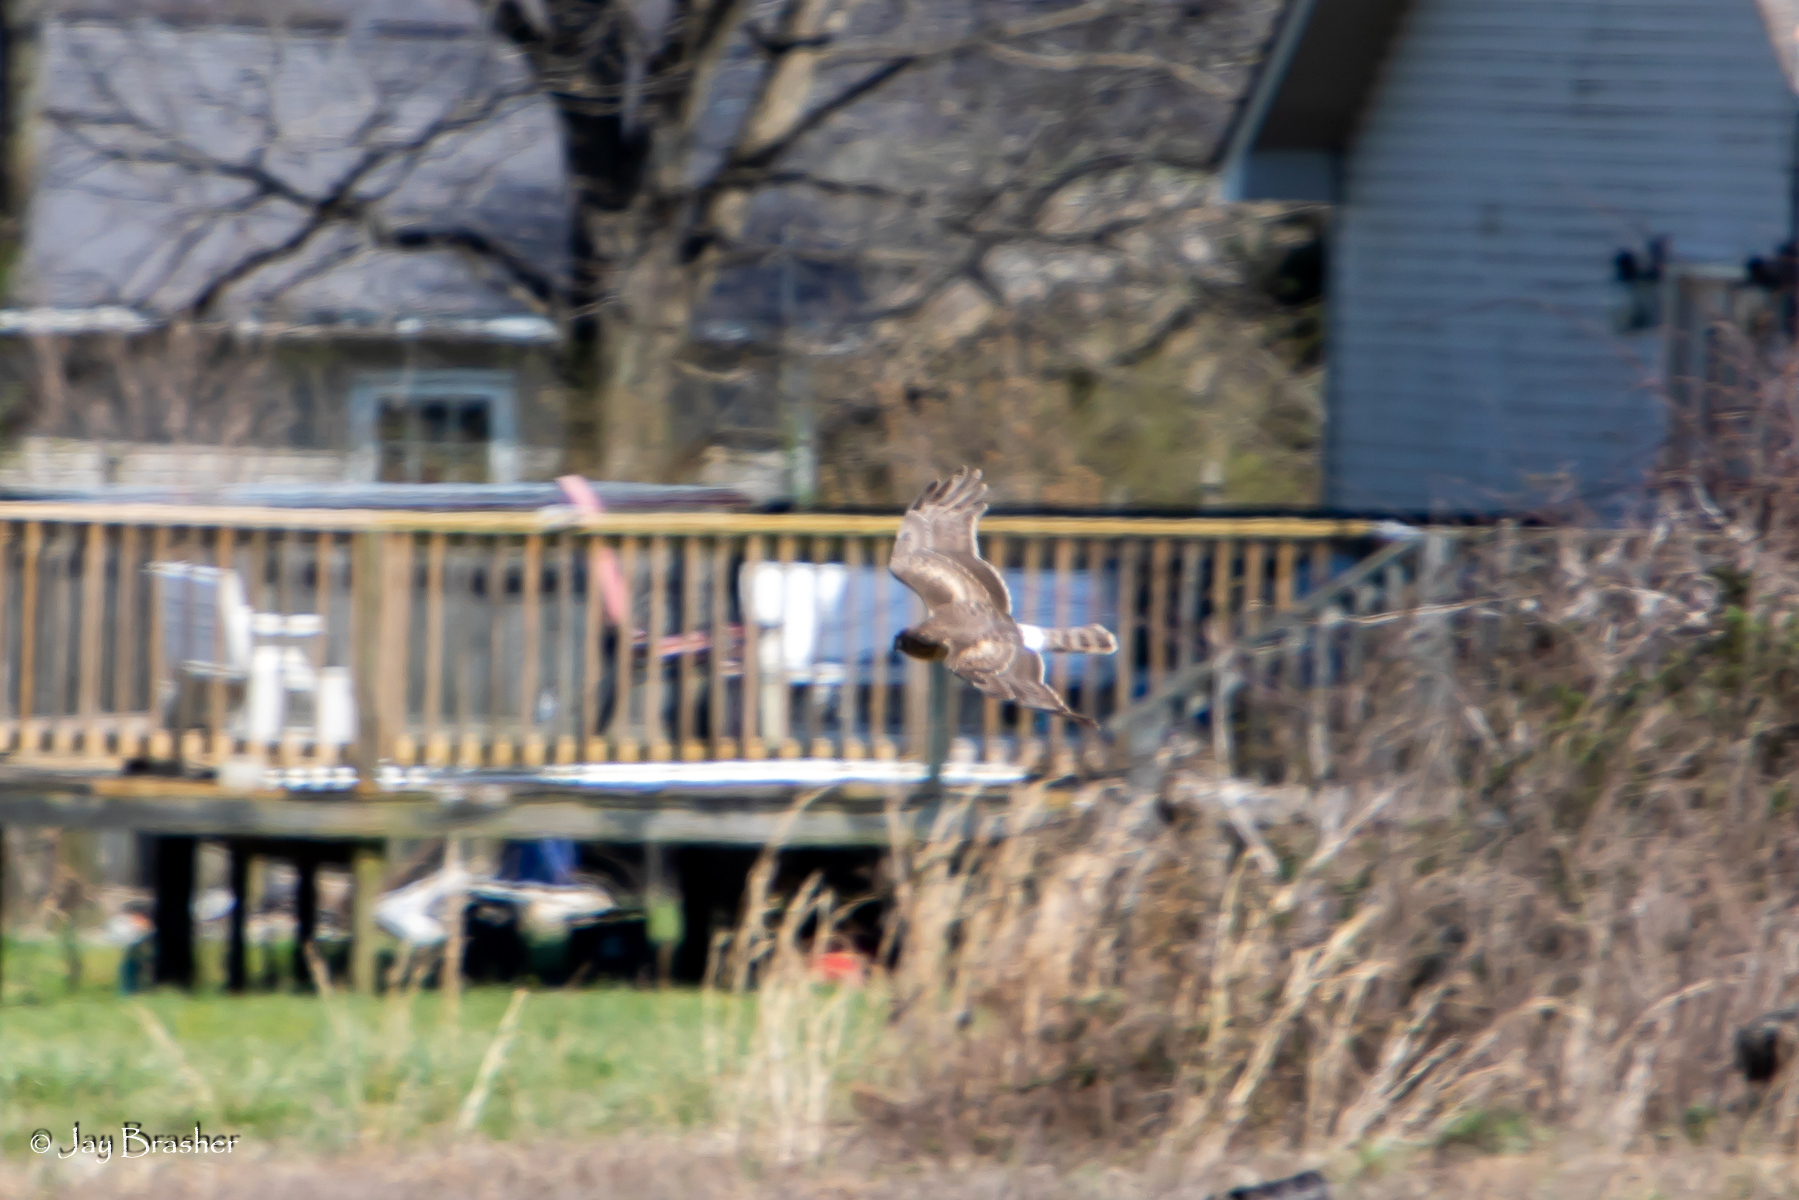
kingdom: Animalia
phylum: Chordata
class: Aves
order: Accipitriformes
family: Accipitridae
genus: Circus
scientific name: Circus cyaneus
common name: Hen harrier
